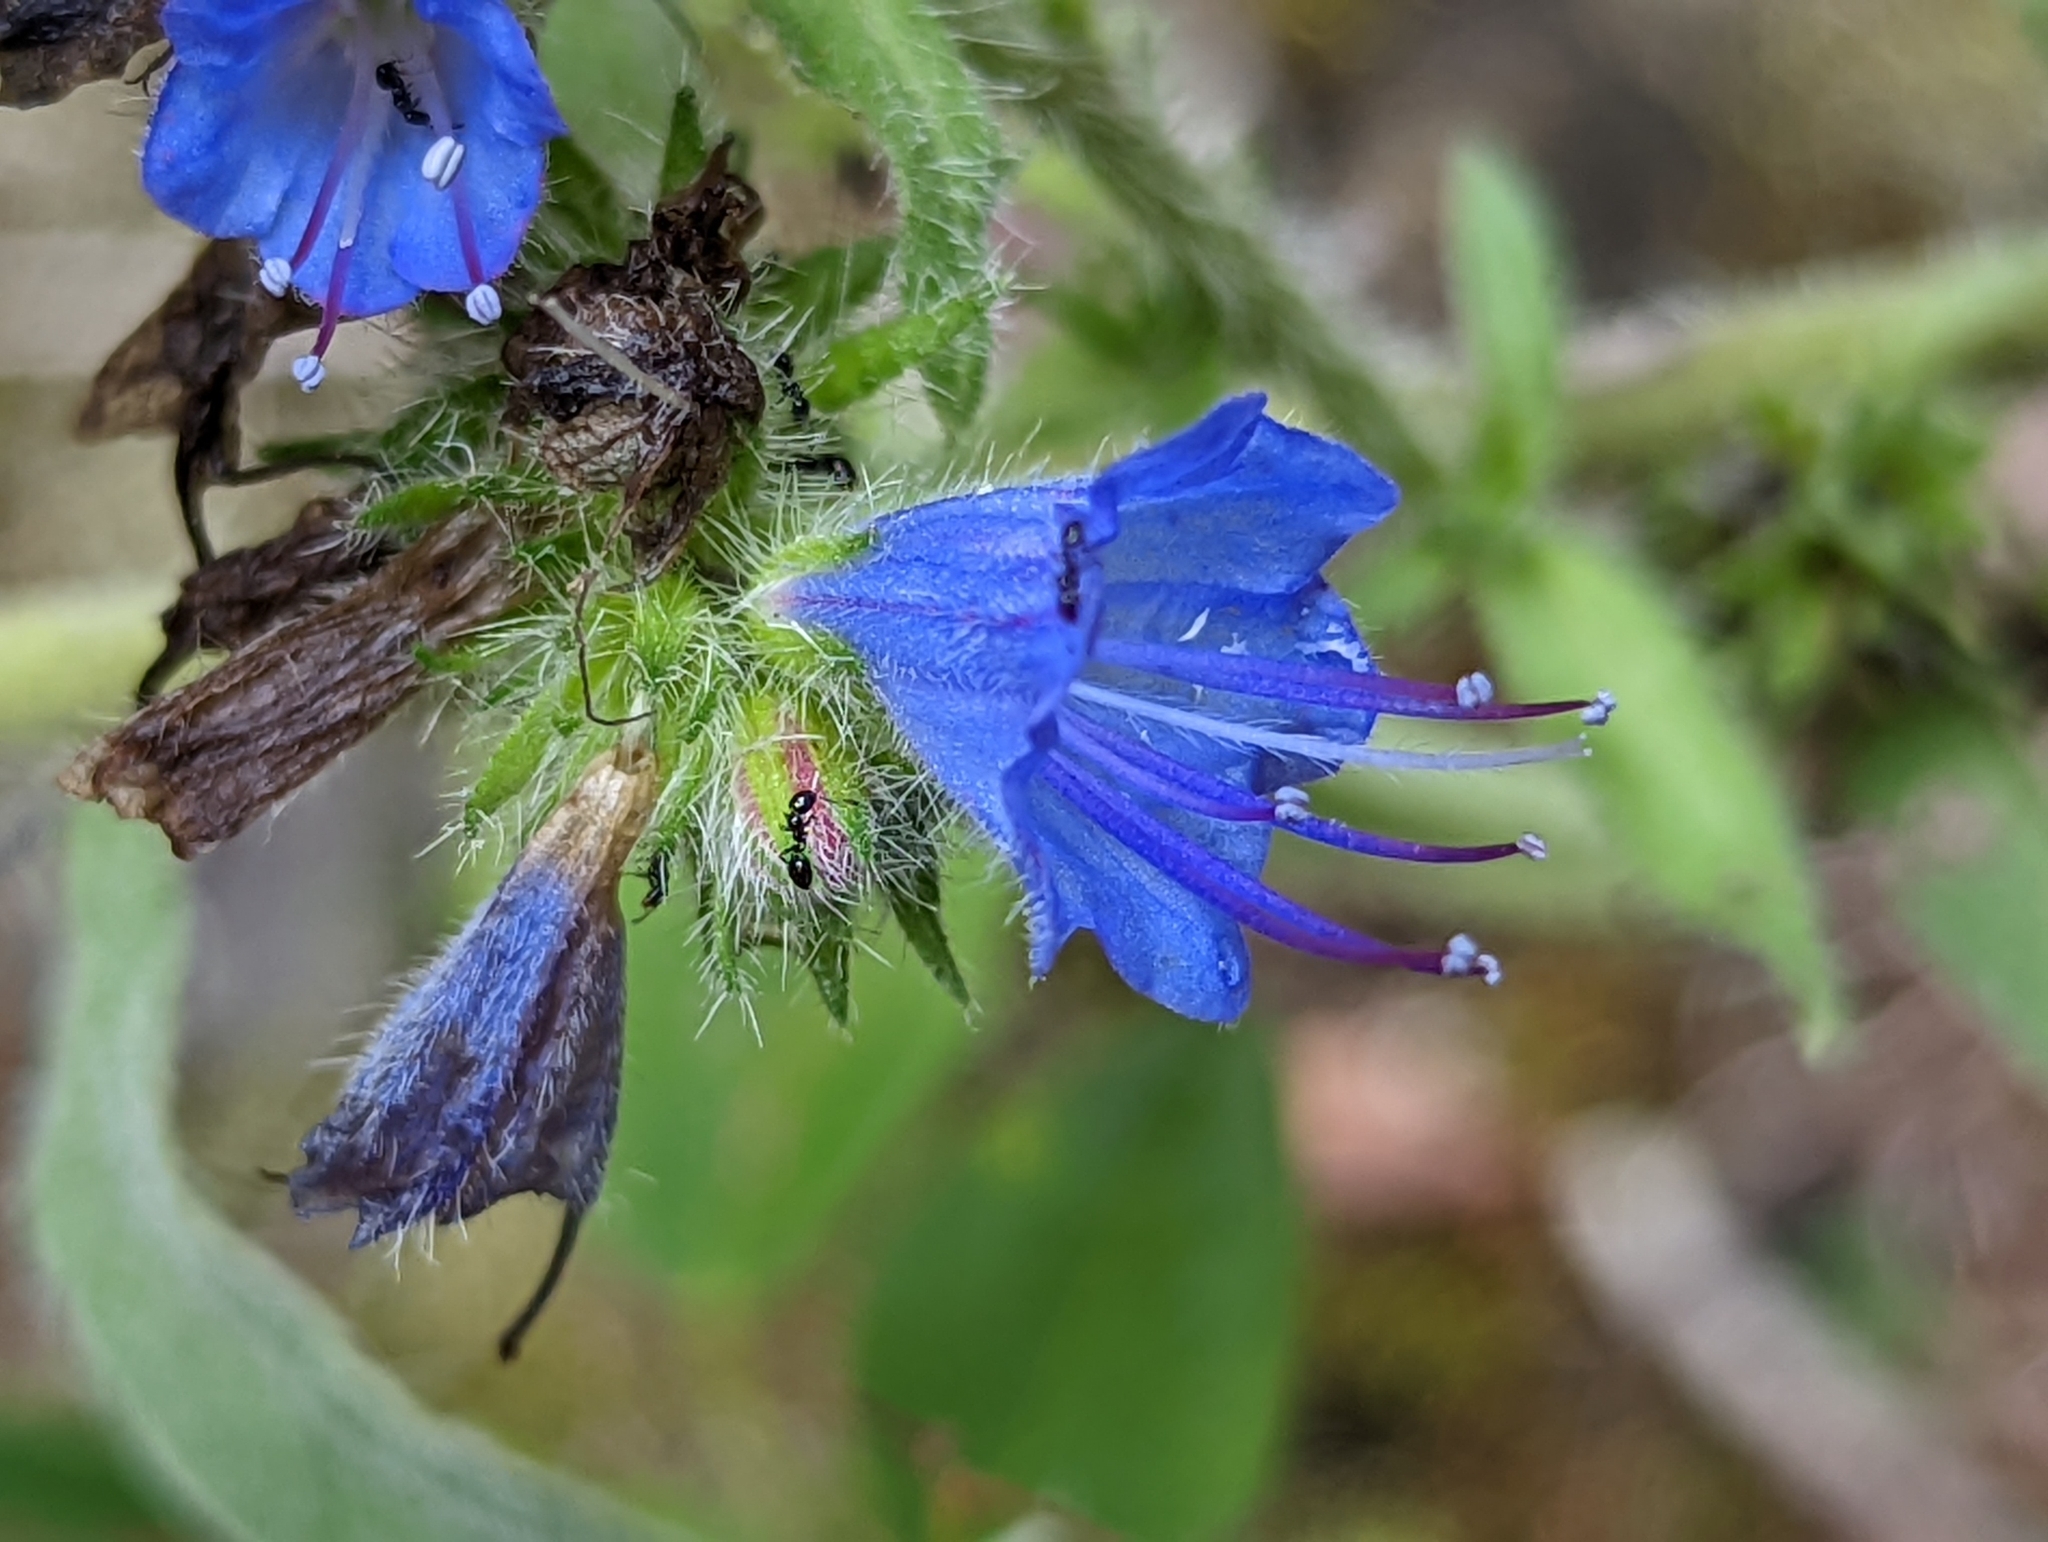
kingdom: Plantae
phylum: Tracheophyta
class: Magnoliopsida
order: Boraginales
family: Boraginaceae
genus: Echium
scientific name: Echium vulgare
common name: Common viper's bugloss
